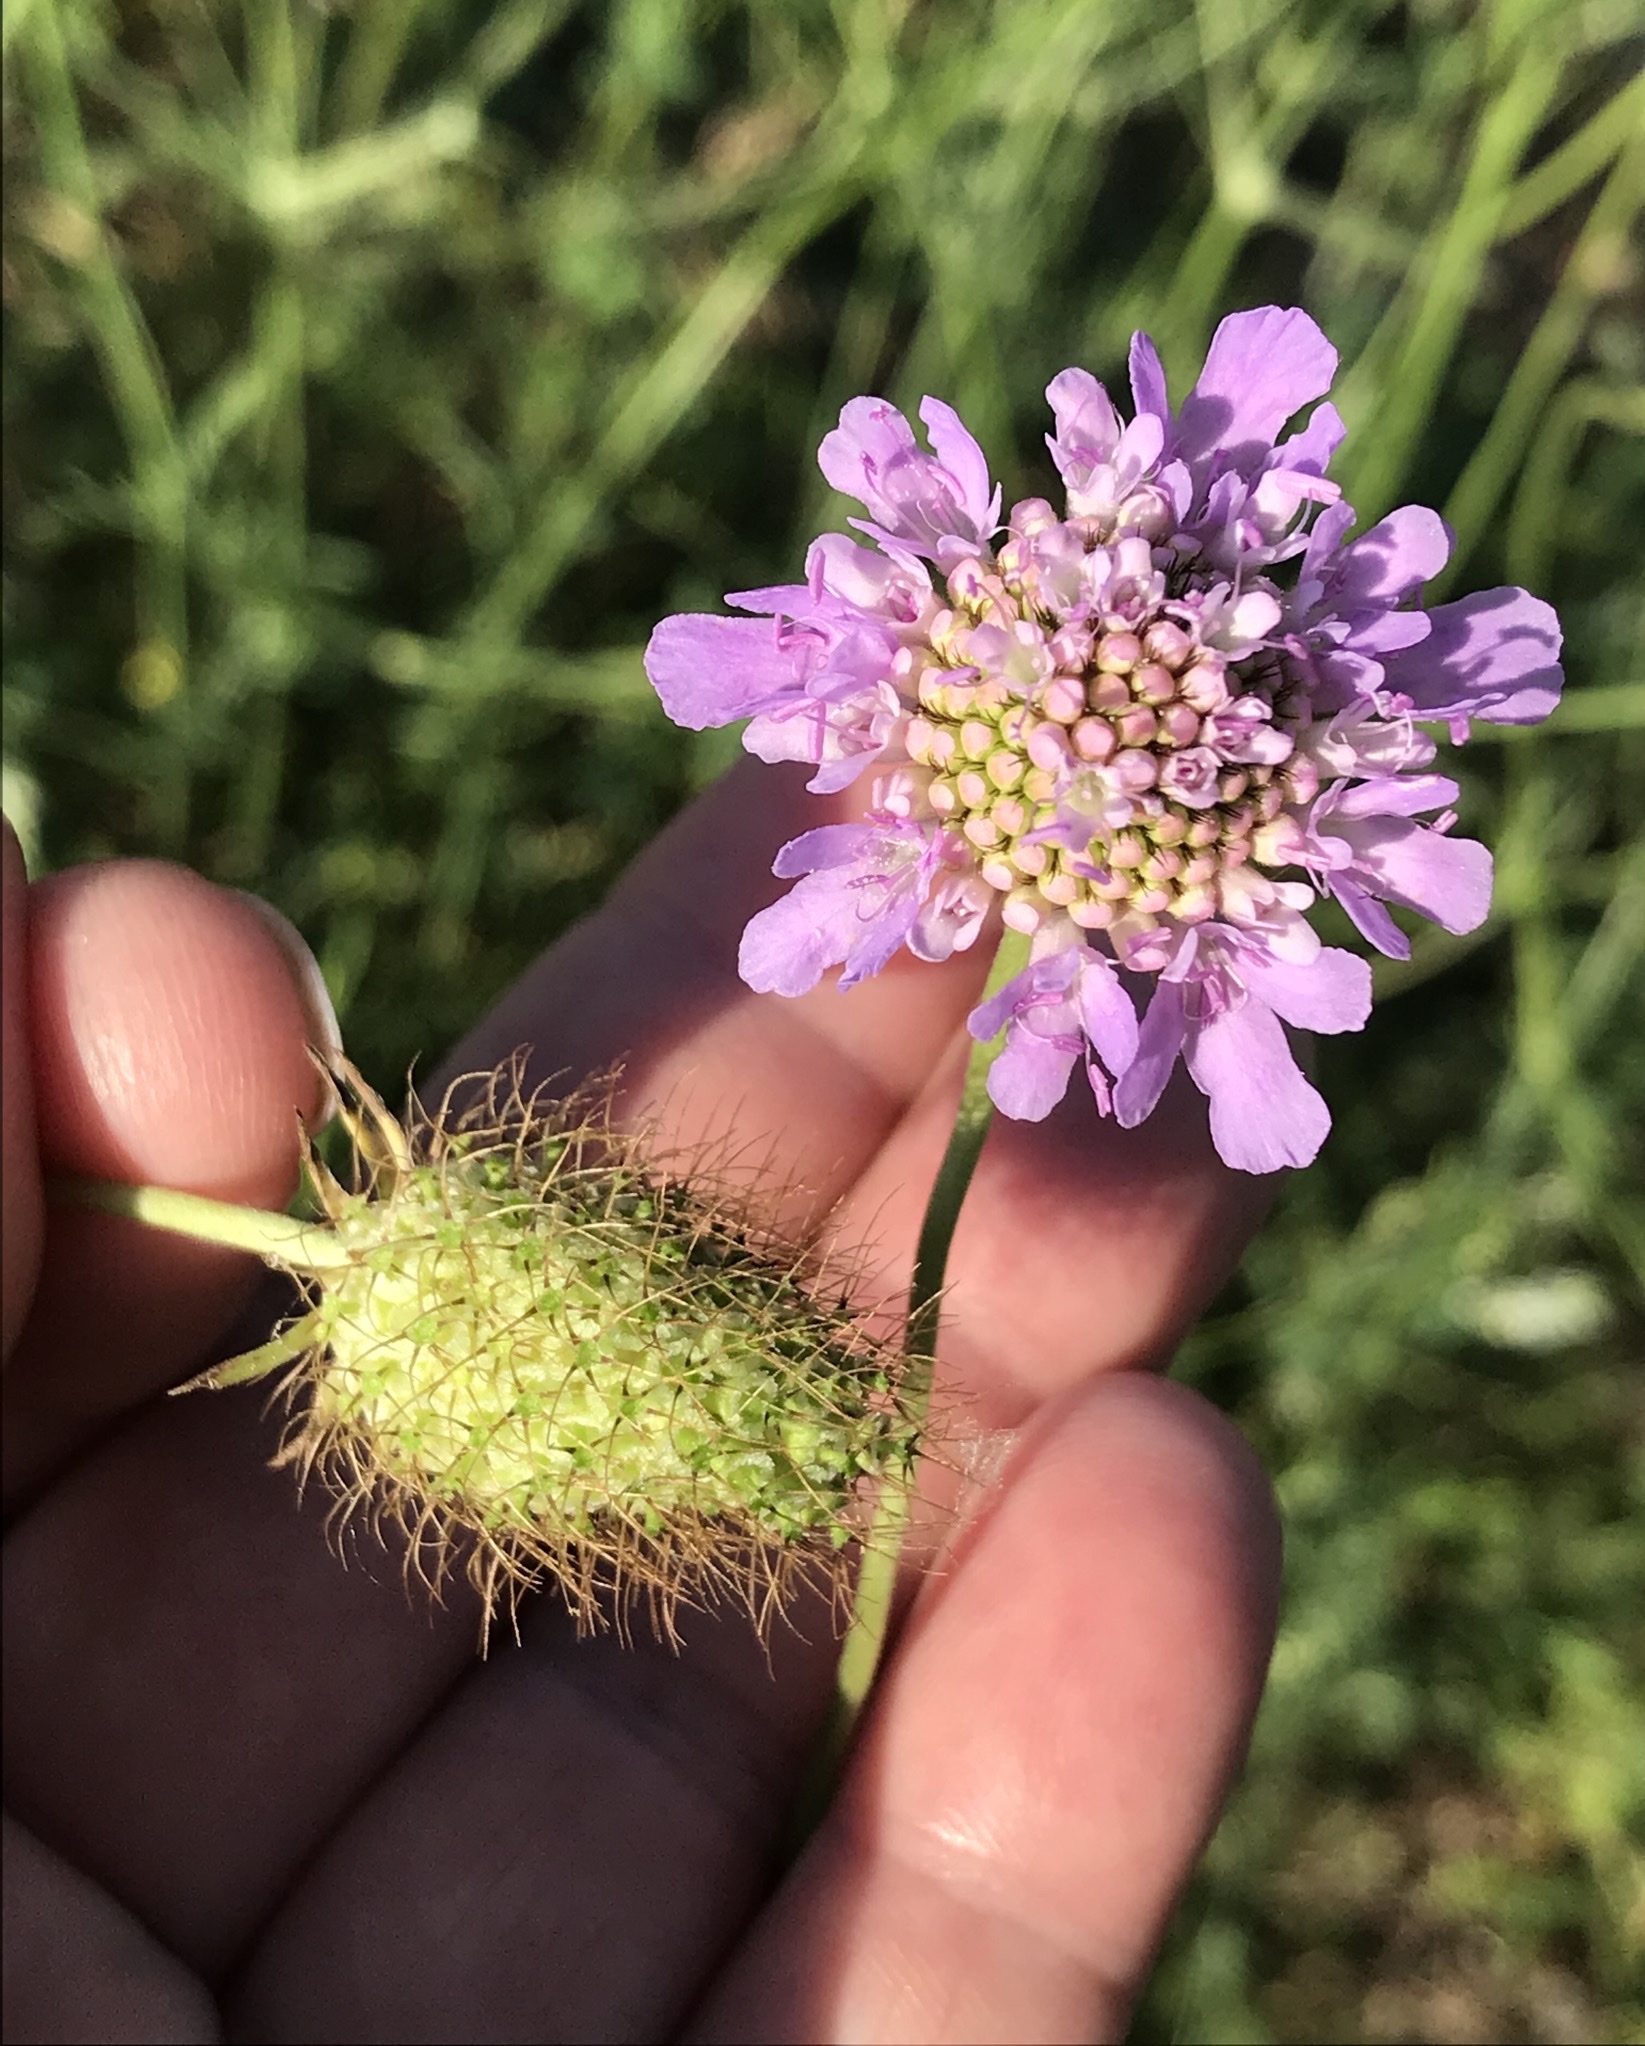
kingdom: Plantae
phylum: Tracheophyta
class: Magnoliopsida
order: Dipsacales
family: Caprifoliaceae
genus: Sixalix
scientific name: Sixalix atropurpurea
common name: Sweet scabious
